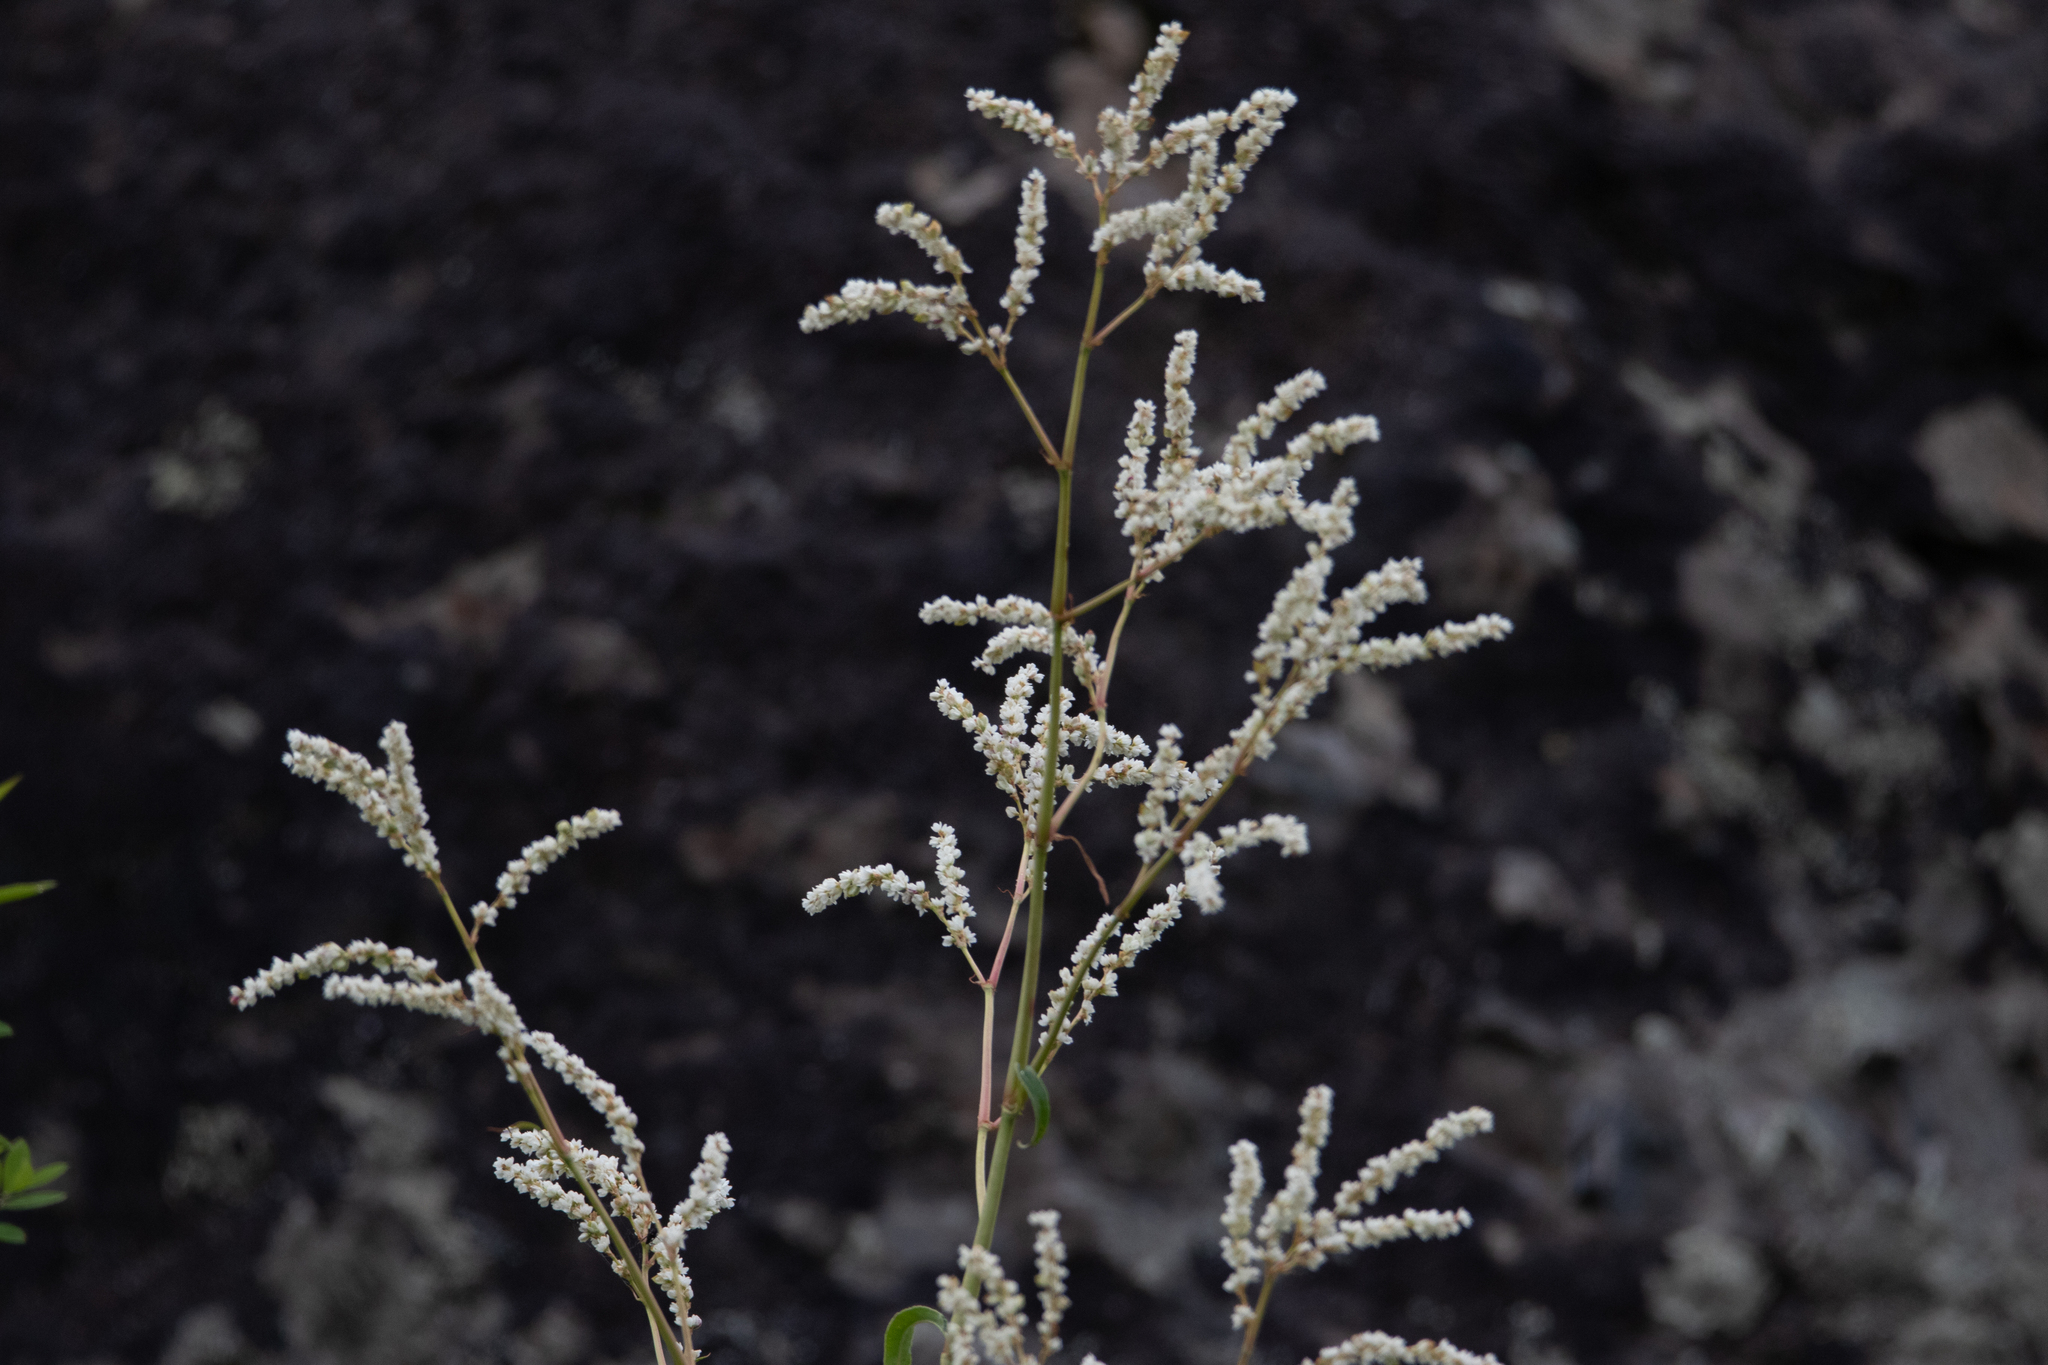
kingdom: Plantae
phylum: Tracheophyta
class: Magnoliopsida
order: Caryophyllales
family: Polygonaceae
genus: Koenigia
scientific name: Koenigia alpina
